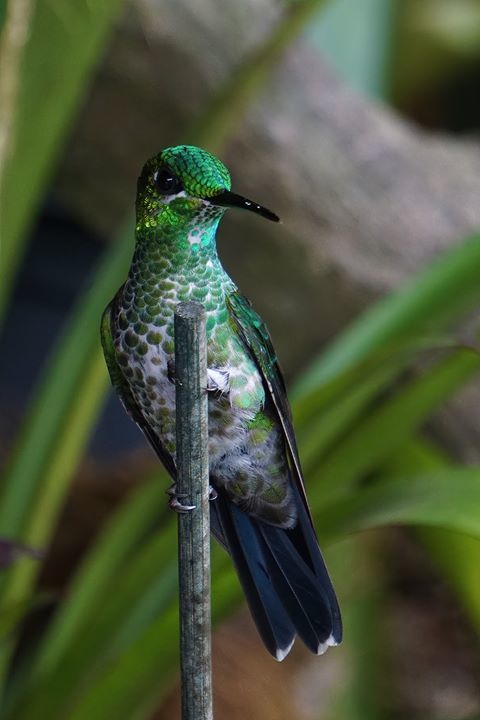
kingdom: Animalia
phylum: Chordata
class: Aves
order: Apodiformes
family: Trochilidae
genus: Heliodoxa
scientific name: Heliodoxa jacula
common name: Green-crowned brilliant
